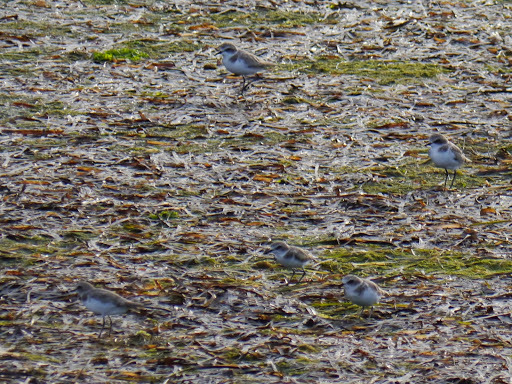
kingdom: Animalia
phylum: Chordata
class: Aves
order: Charadriiformes
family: Charadriidae
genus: Charadrius
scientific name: Charadrius alexandrinus
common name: Kentish plover
